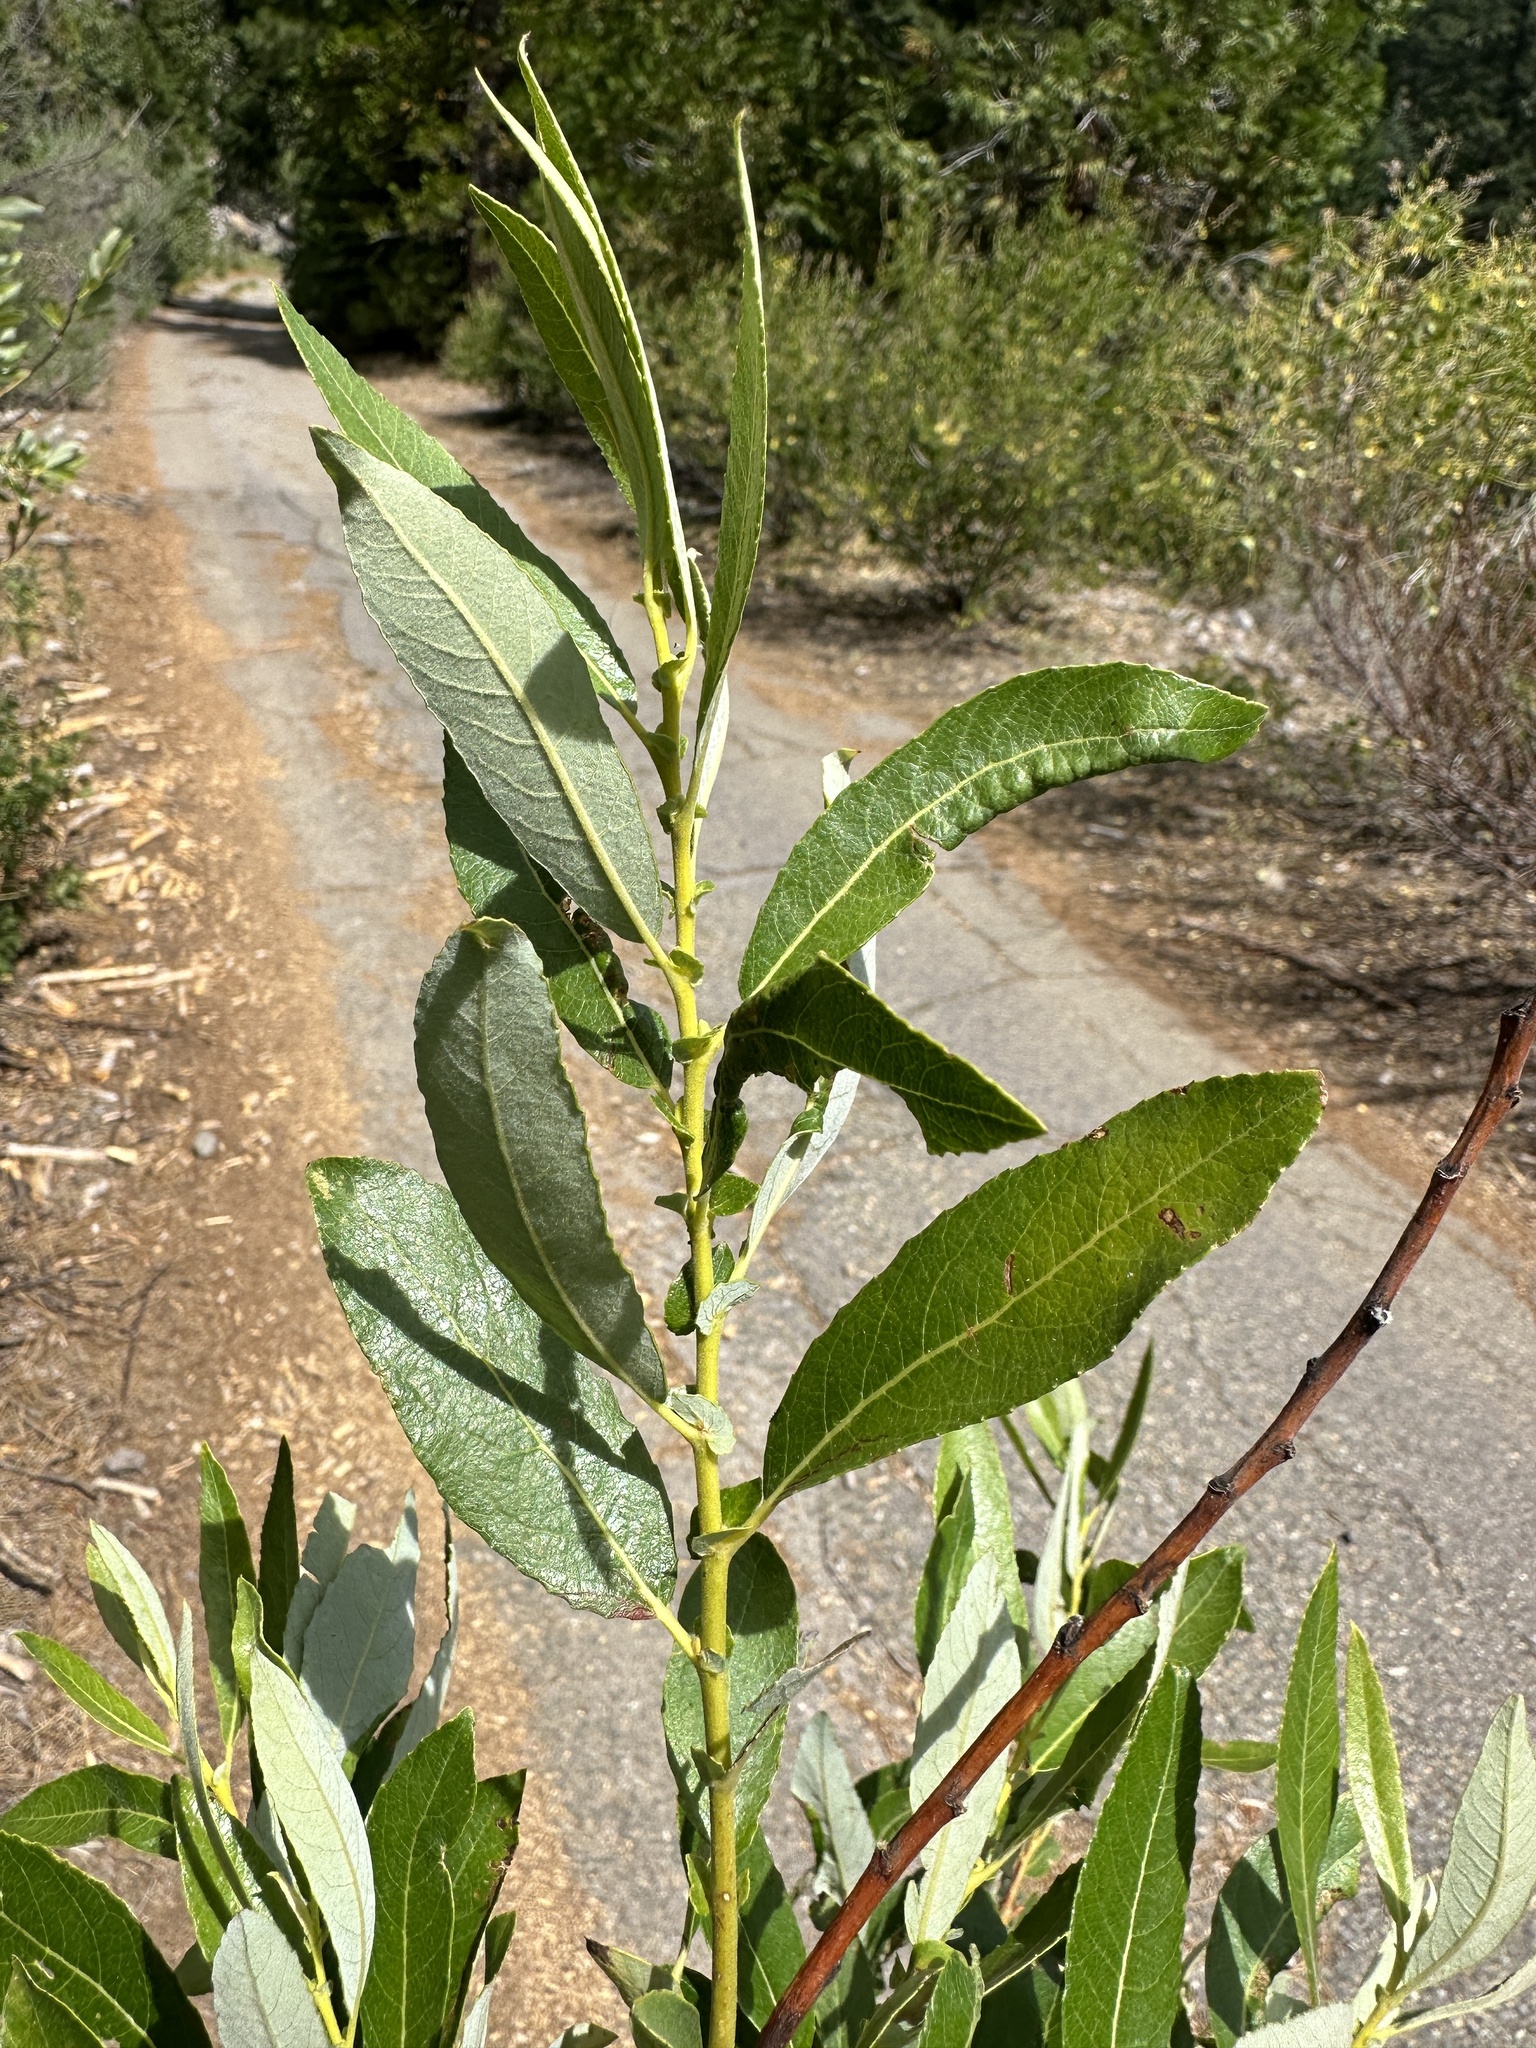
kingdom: Plantae
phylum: Tracheophyta
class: Magnoliopsida
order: Malpighiales
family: Salicaceae
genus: Salix
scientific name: Salix lasiolepis
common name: Arroyo willow
